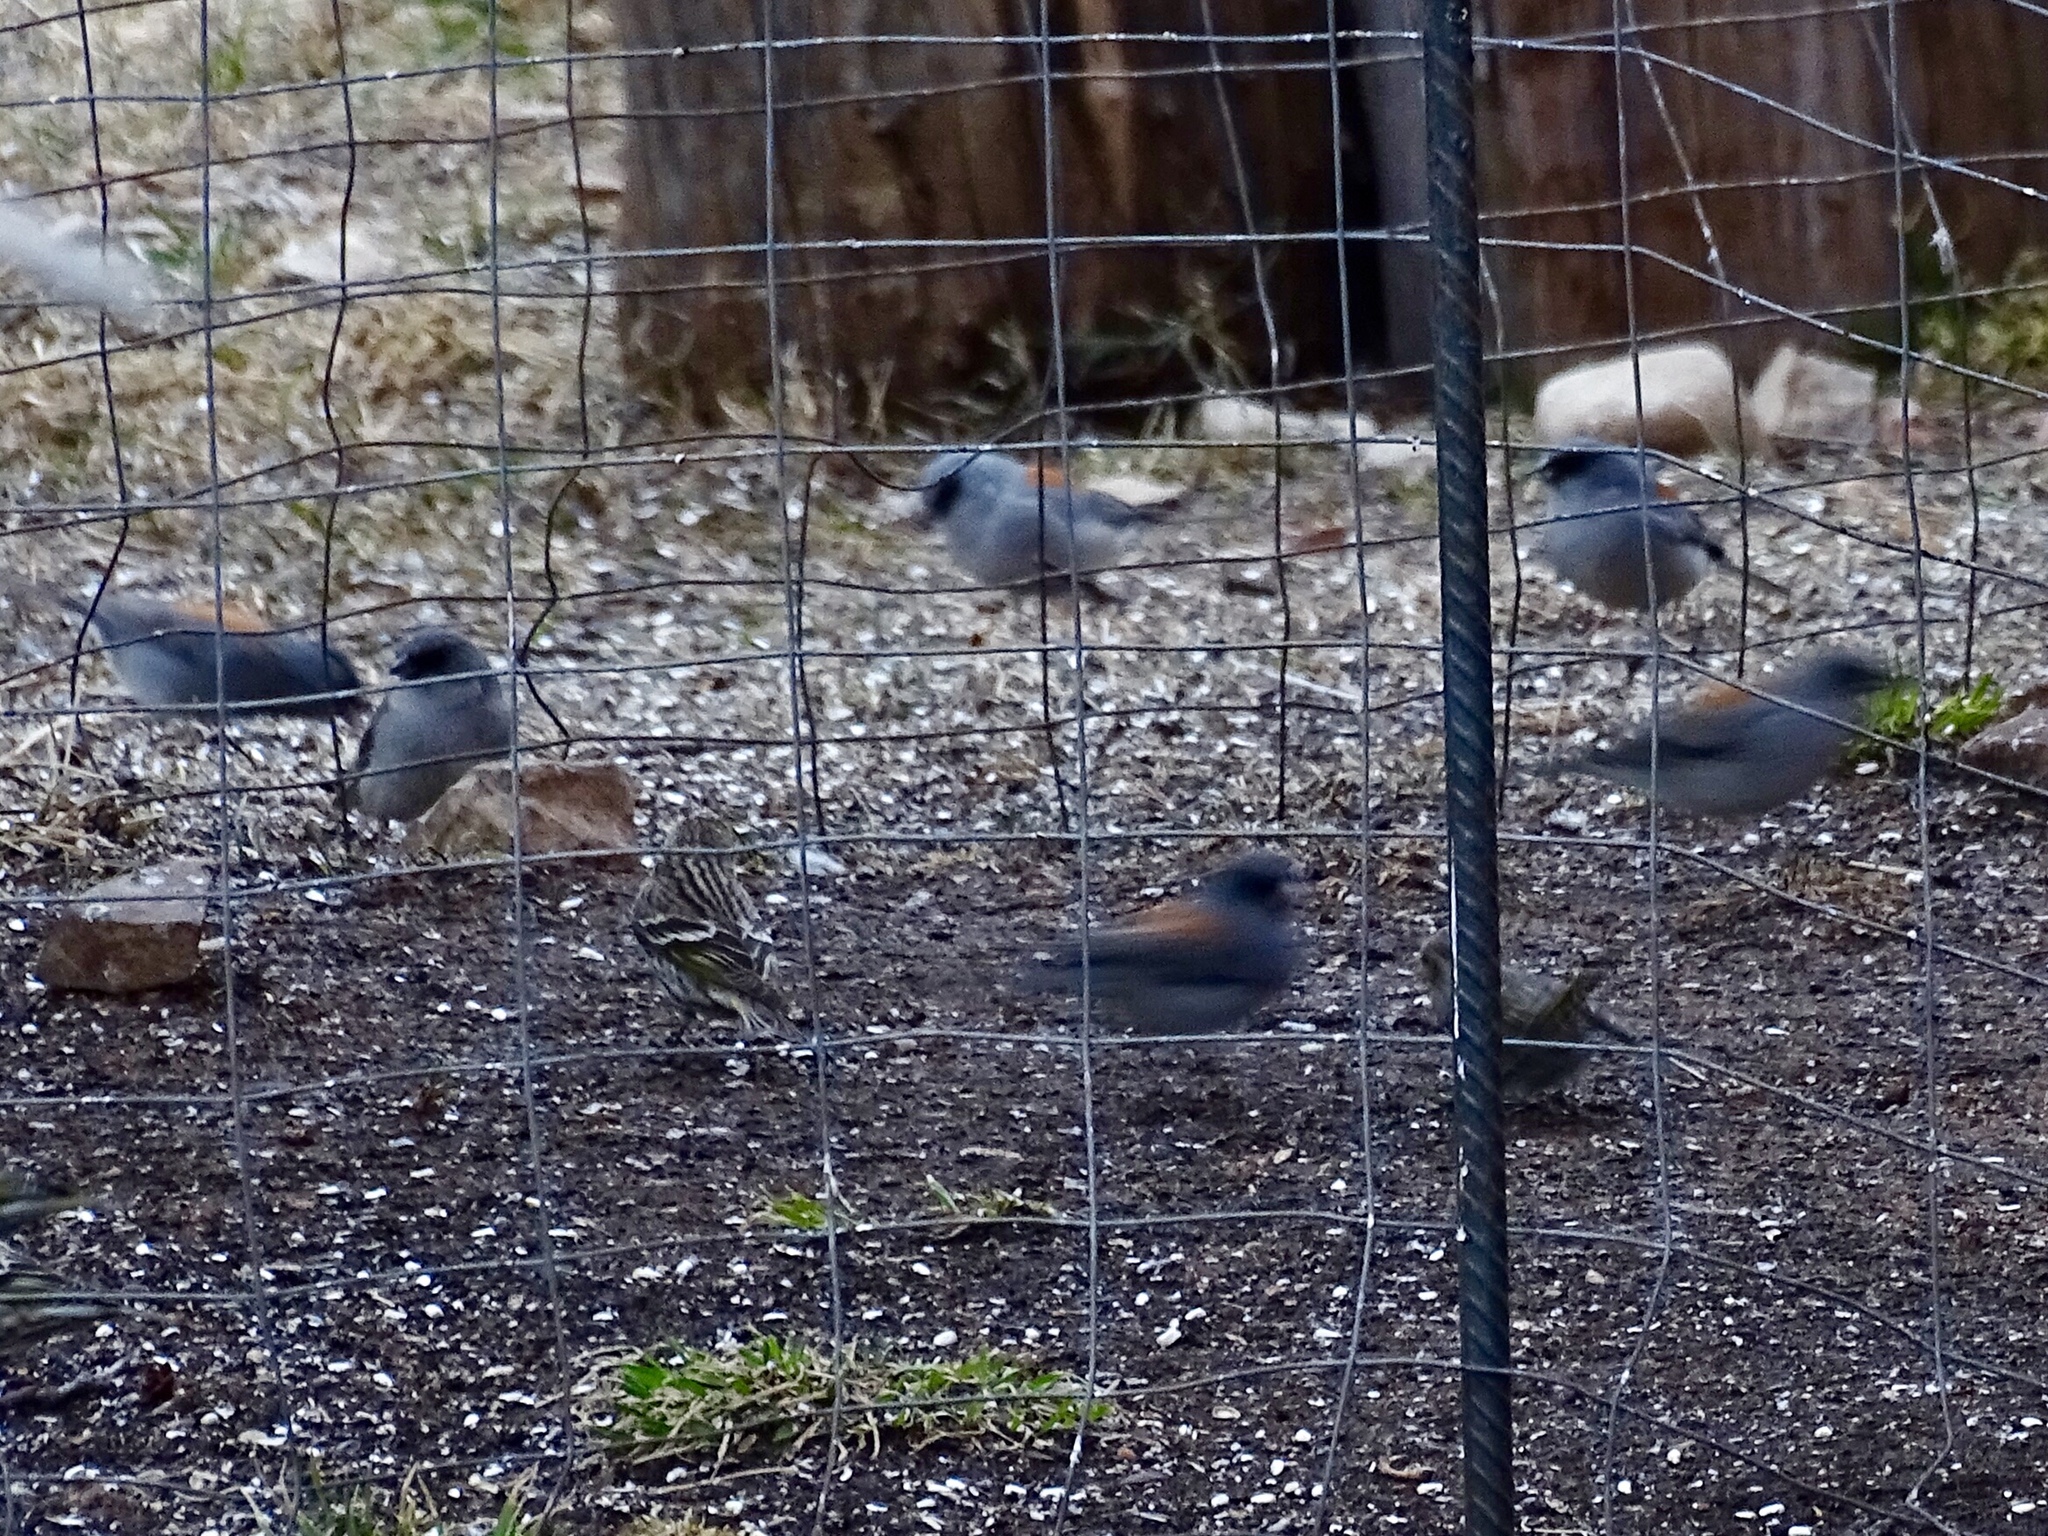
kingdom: Animalia
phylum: Chordata
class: Aves
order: Passeriformes
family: Passerellidae
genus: Junco
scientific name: Junco hyemalis
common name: Dark-eyed junco
